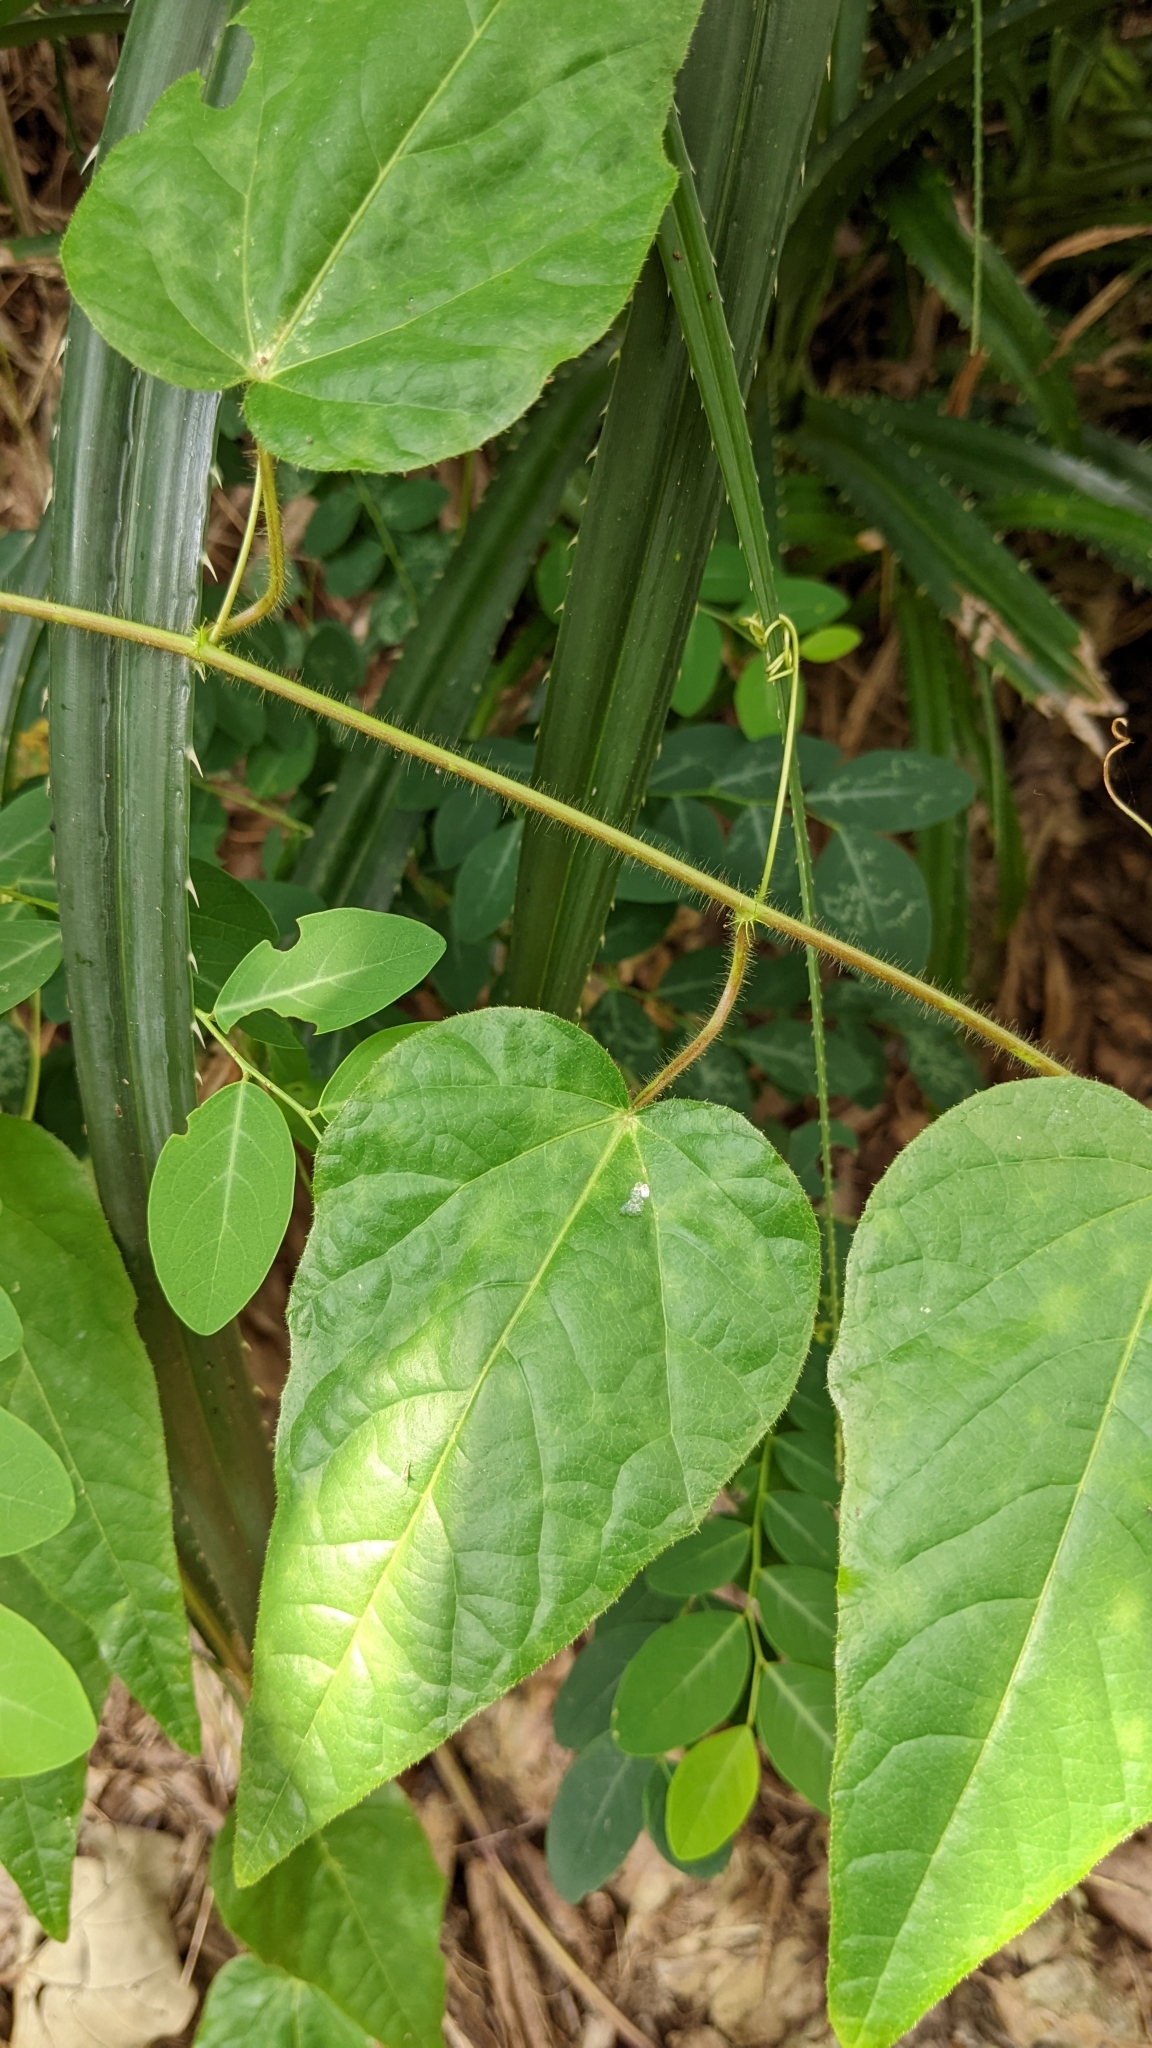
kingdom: Plantae
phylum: Tracheophyta
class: Magnoliopsida
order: Malpighiales
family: Passifloraceae
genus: Passiflora
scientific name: Passiflora vesicaria
